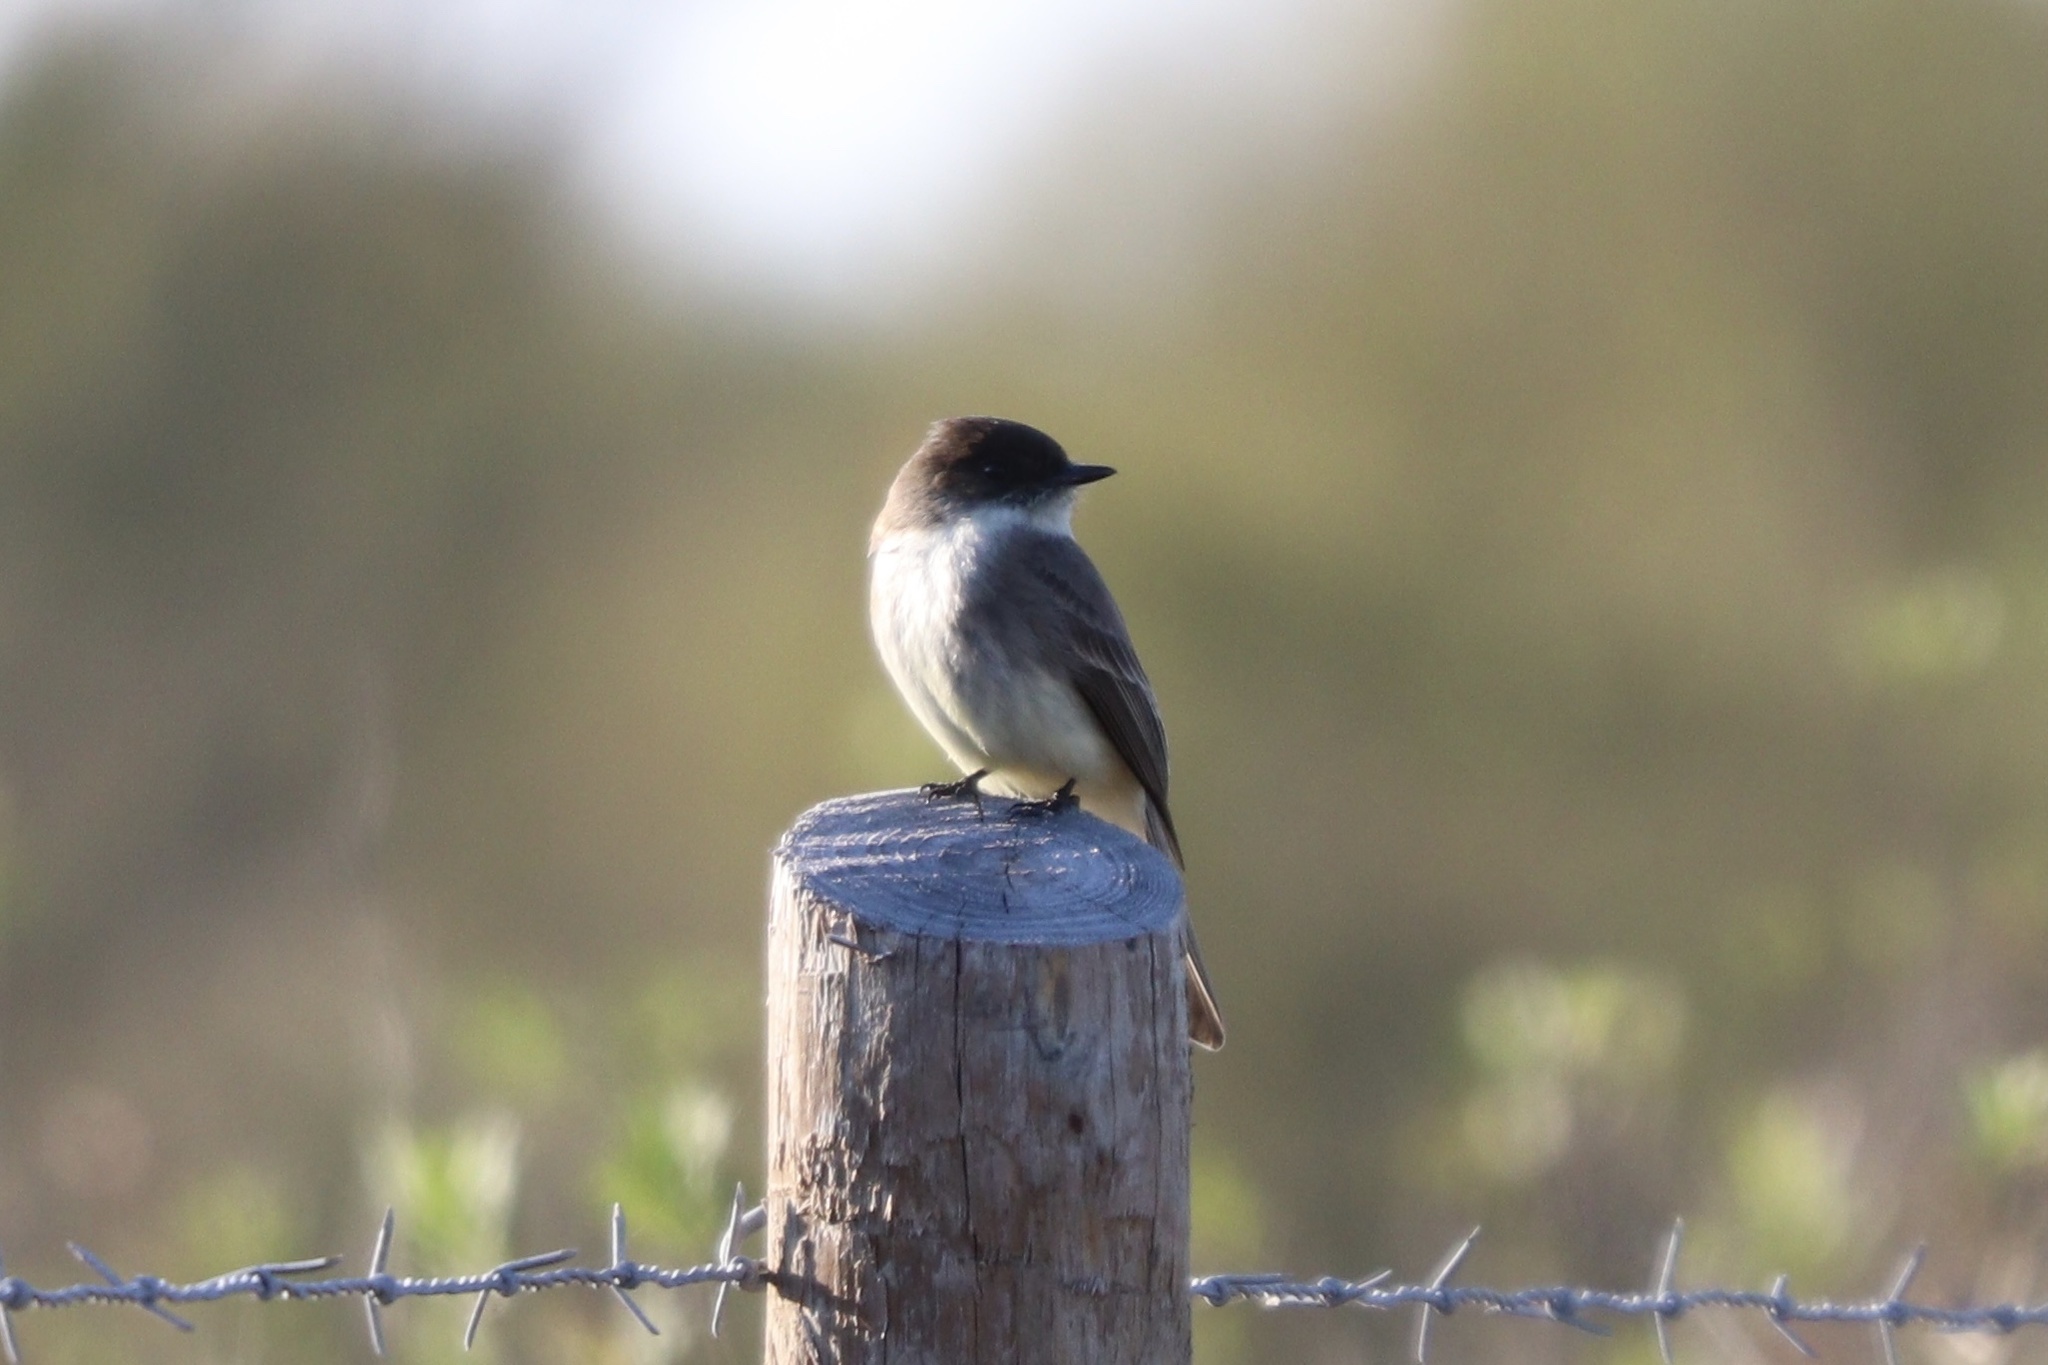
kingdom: Animalia
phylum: Chordata
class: Aves
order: Passeriformes
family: Tyrannidae
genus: Sayornis
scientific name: Sayornis phoebe
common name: Eastern phoebe
